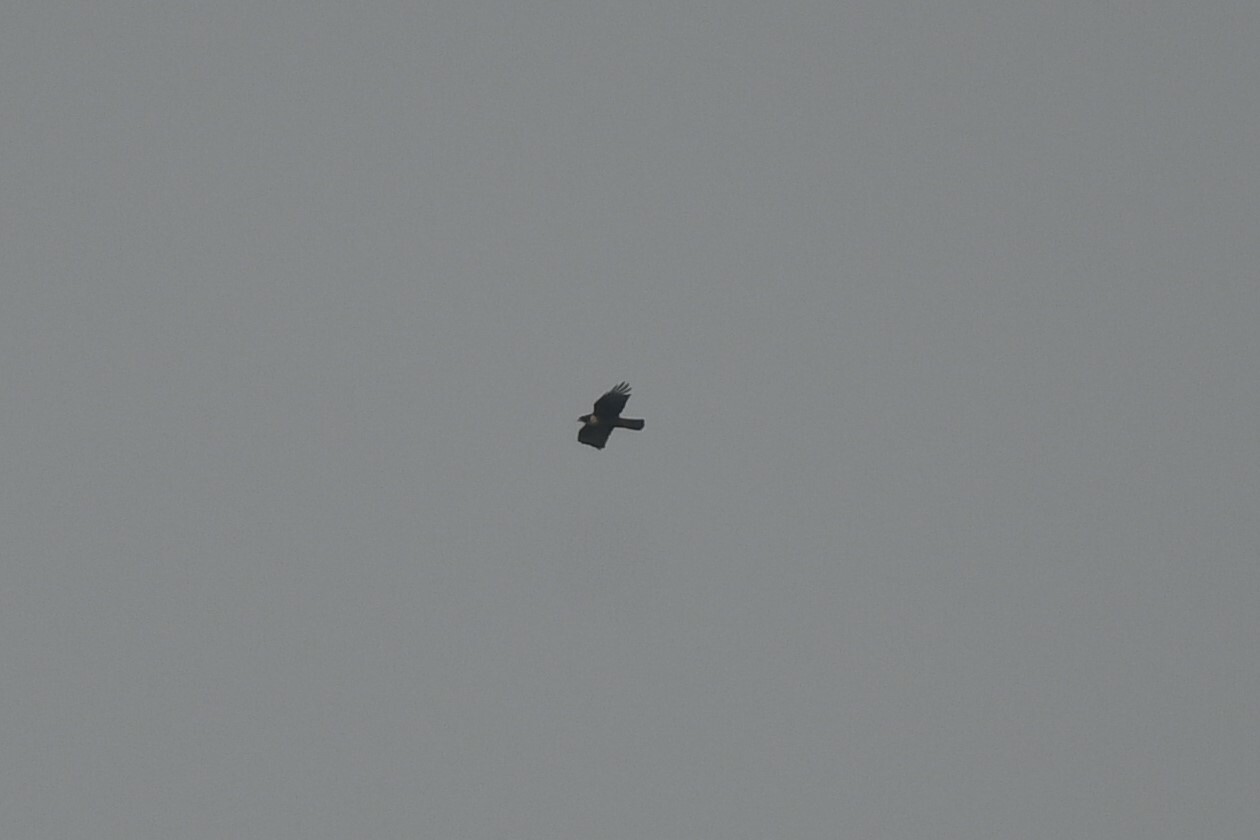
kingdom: Animalia
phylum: Chordata
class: Aves
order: Accipitriformes
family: Accipitridae
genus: Lophotriorchis
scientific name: Lophotriorchis kienerii
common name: Rufous-bellied eagle
